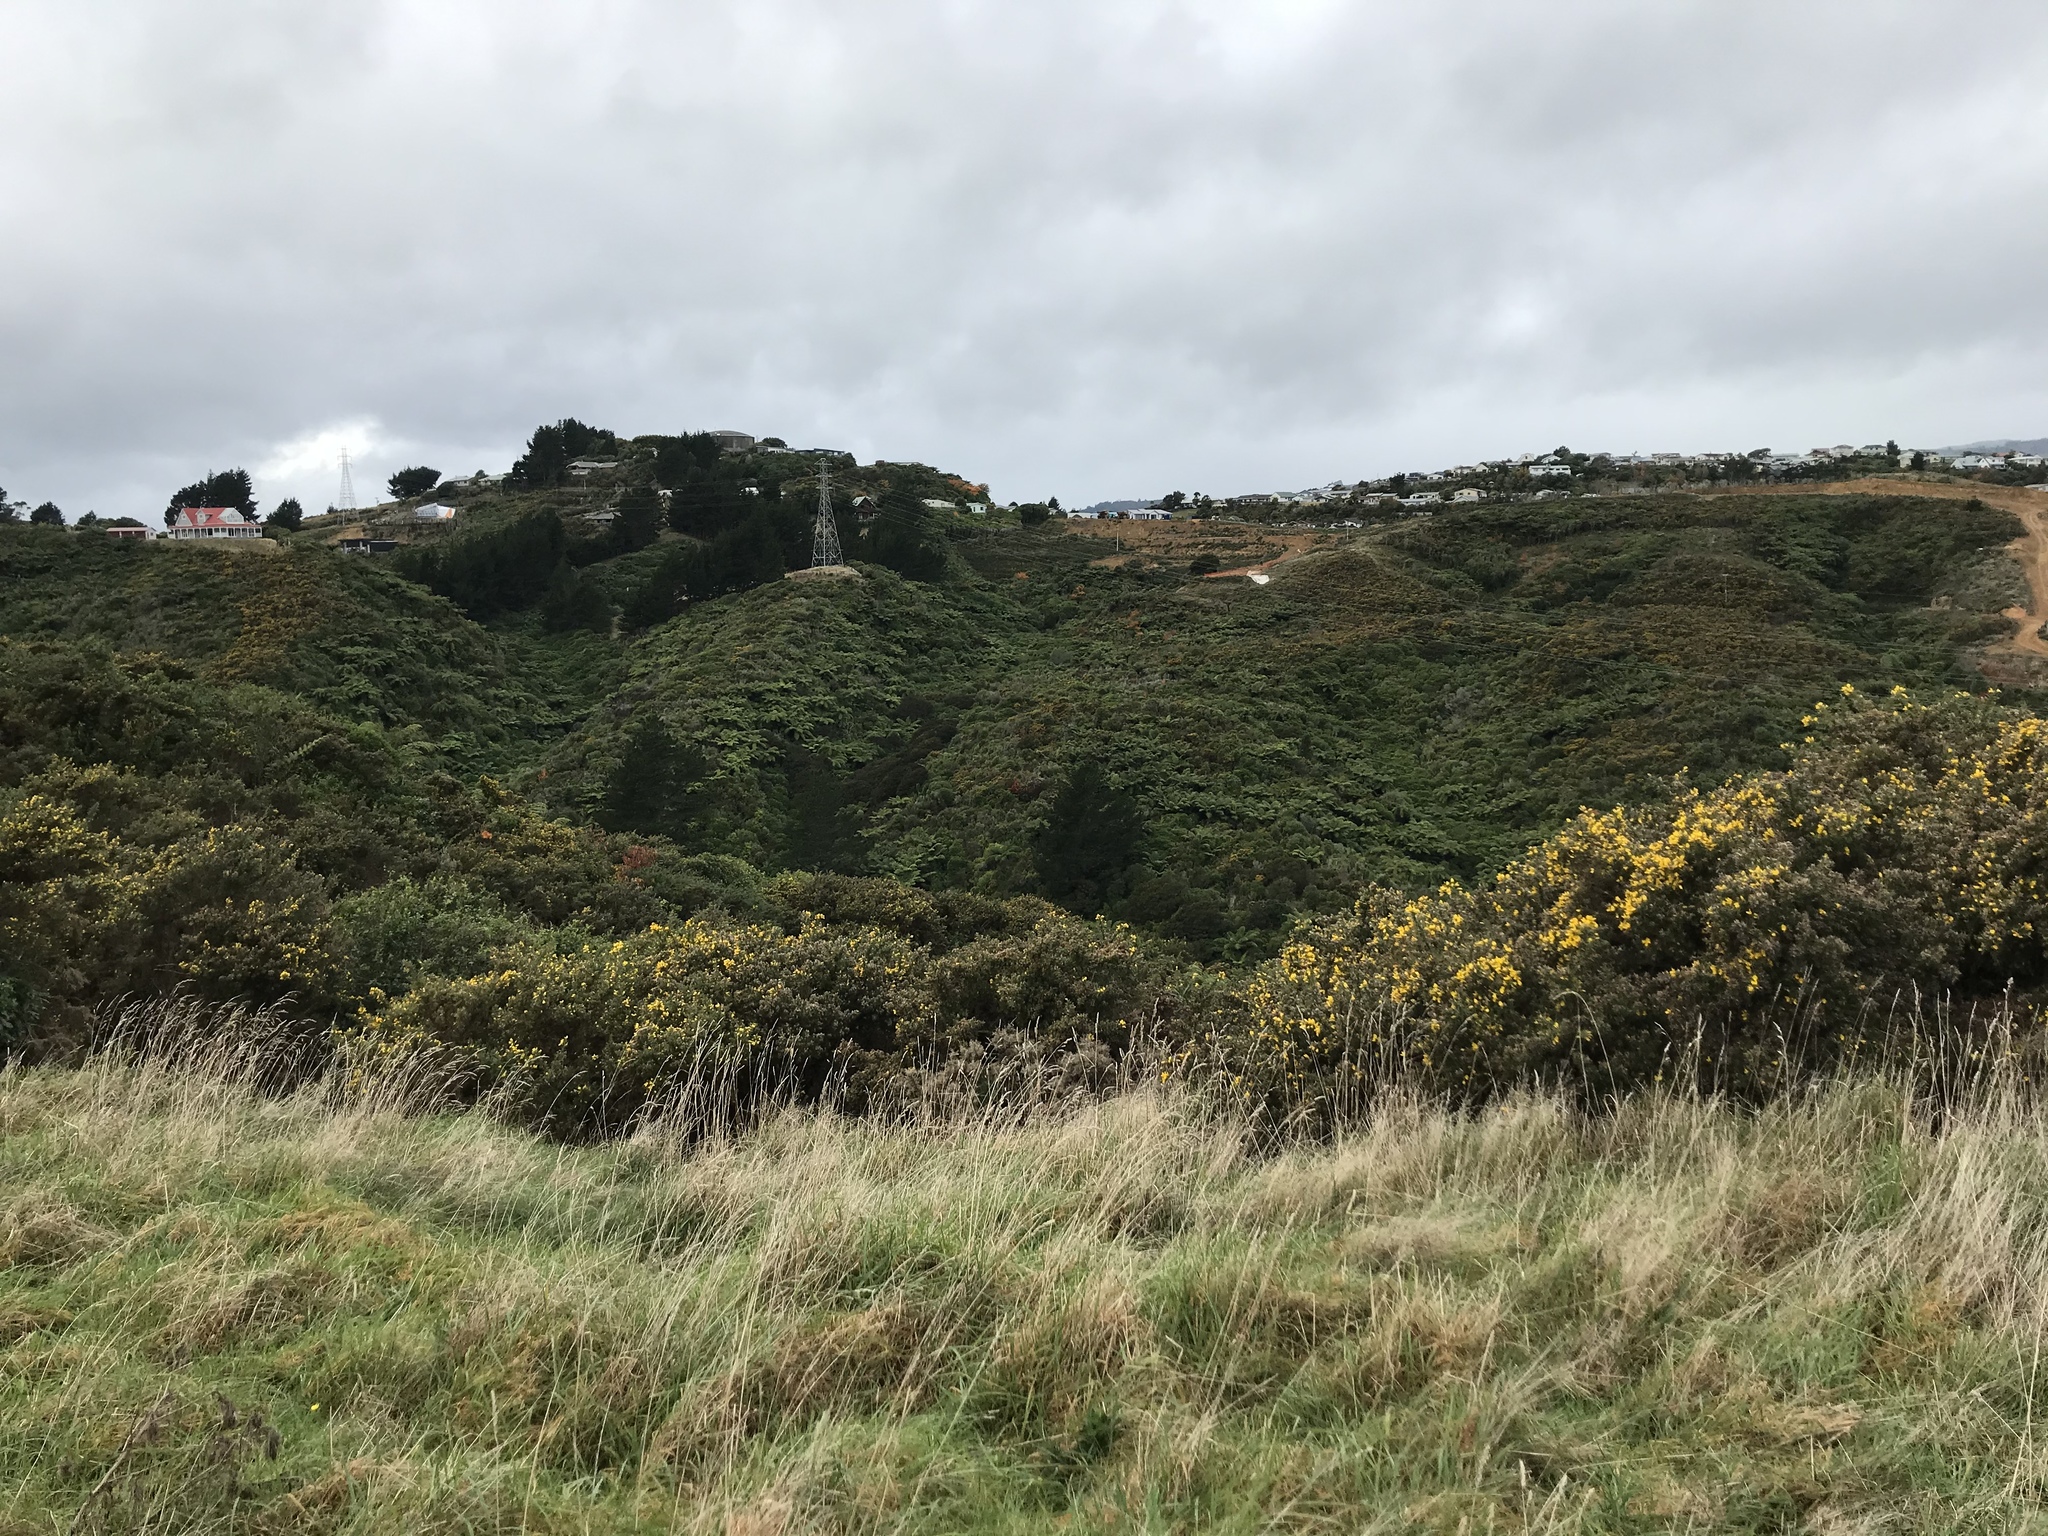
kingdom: Plantae
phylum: Tracheophyta
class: Pinopsida
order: Pinales
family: Pinaceae
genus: Pinus
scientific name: Pinus radiata
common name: Monterey pine
